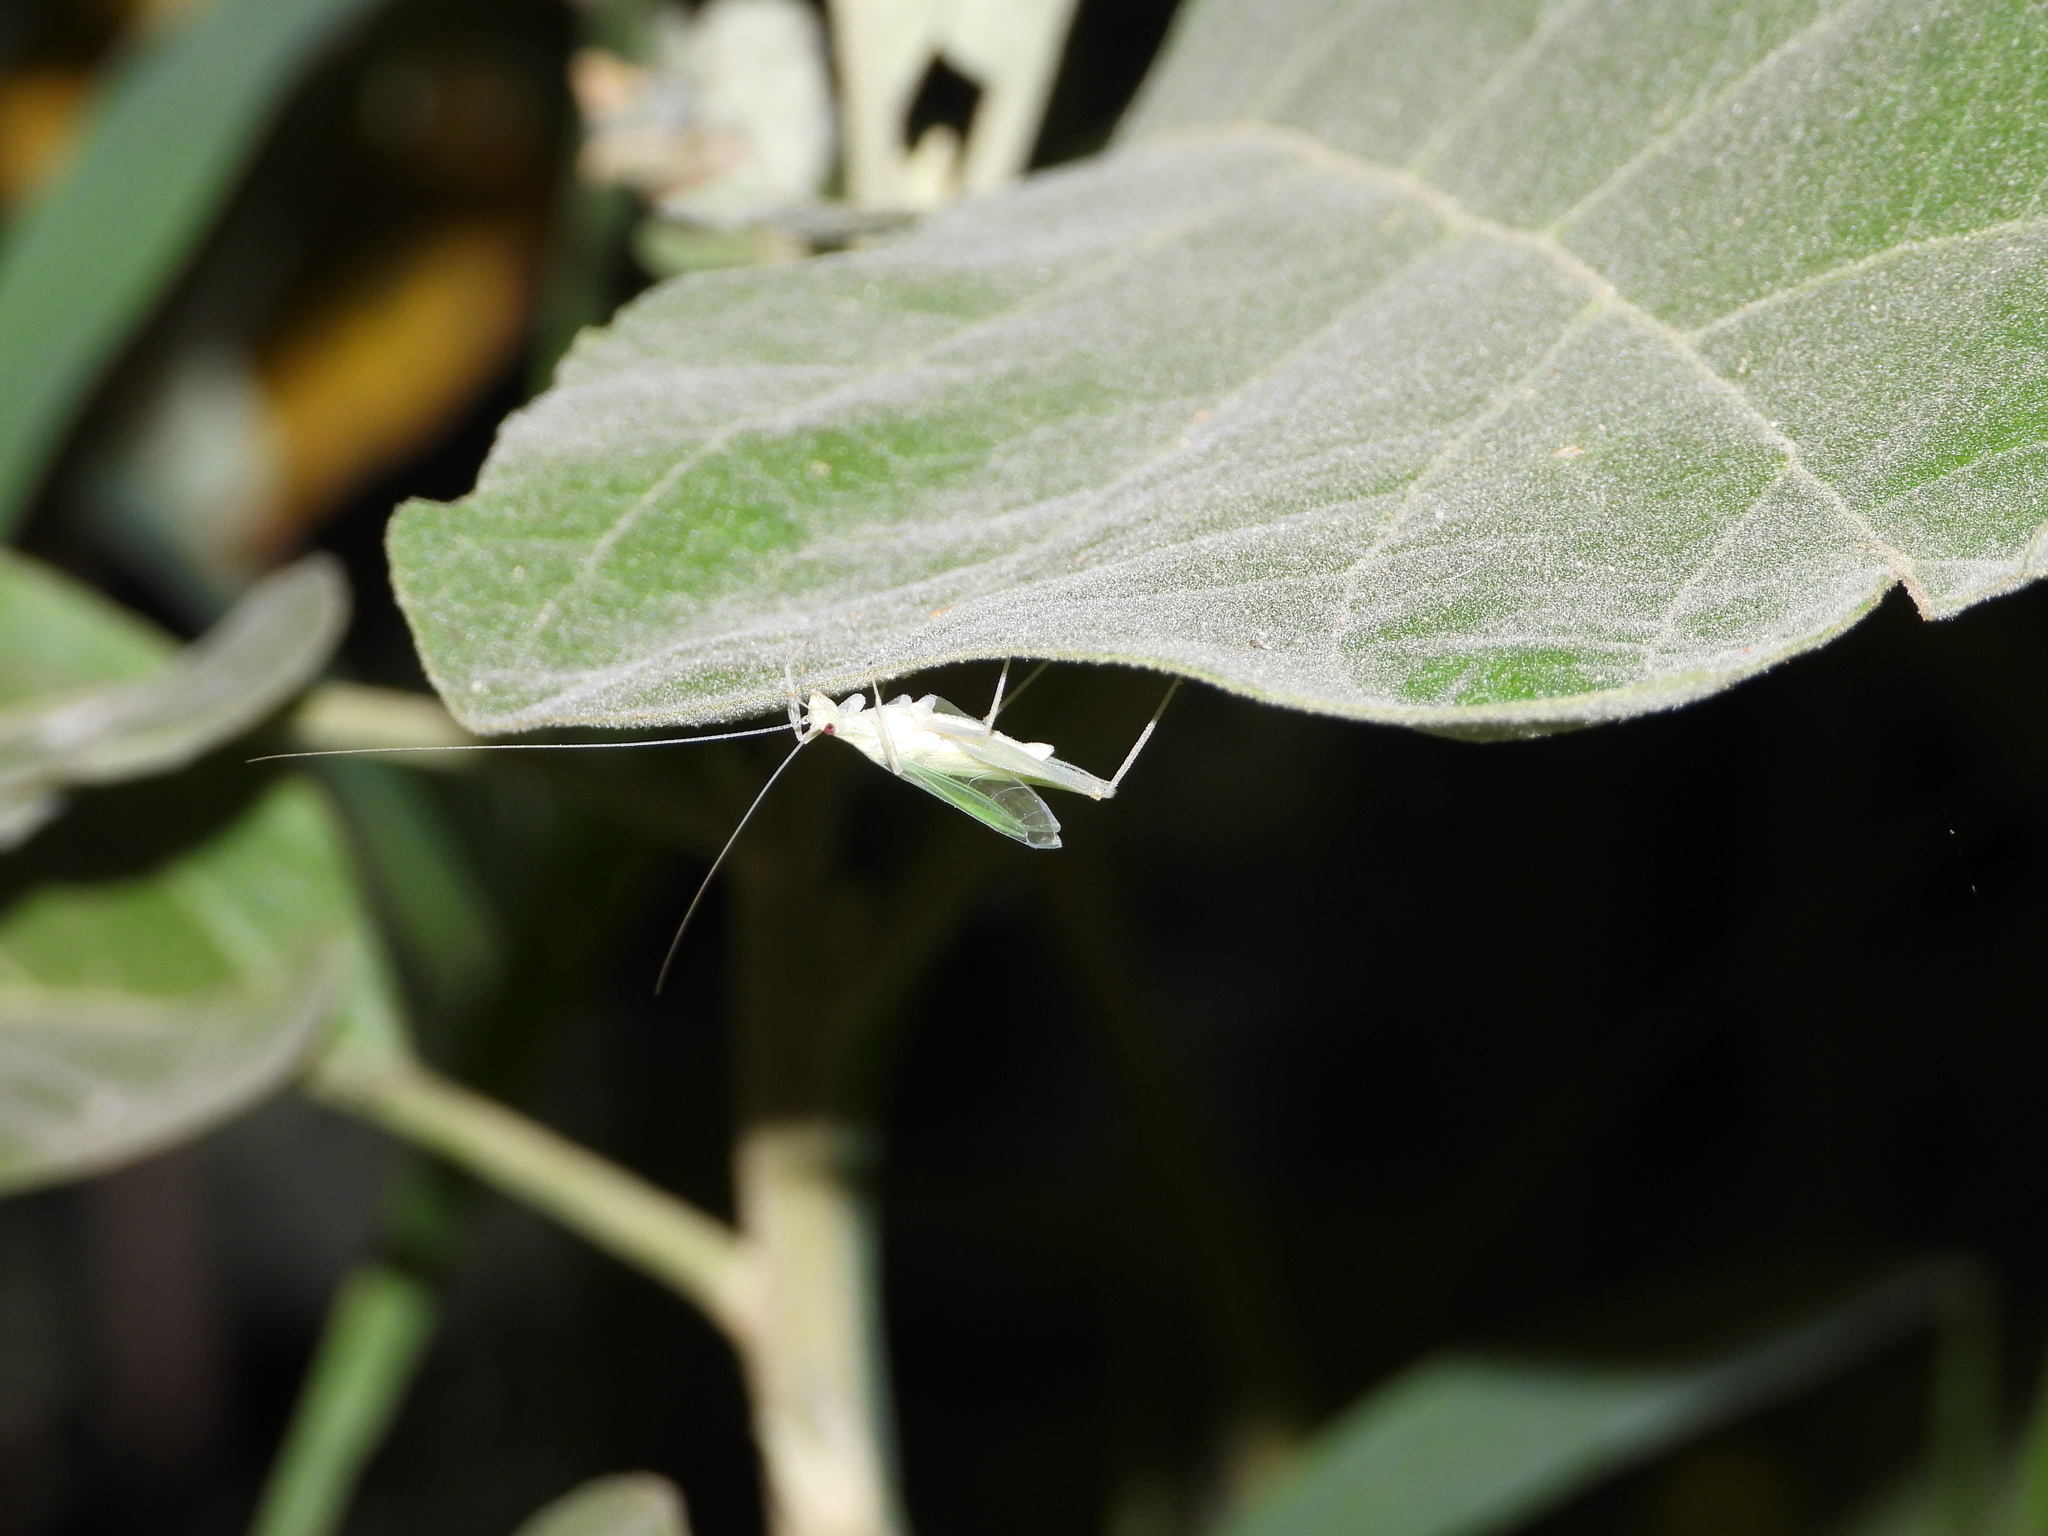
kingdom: Animalia
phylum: Arthropoda
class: Insecta
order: Orthoptera
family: Gryllidae
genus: Oecanthus
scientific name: Oecanthus alexanderi
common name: Alexander's tree cricket
